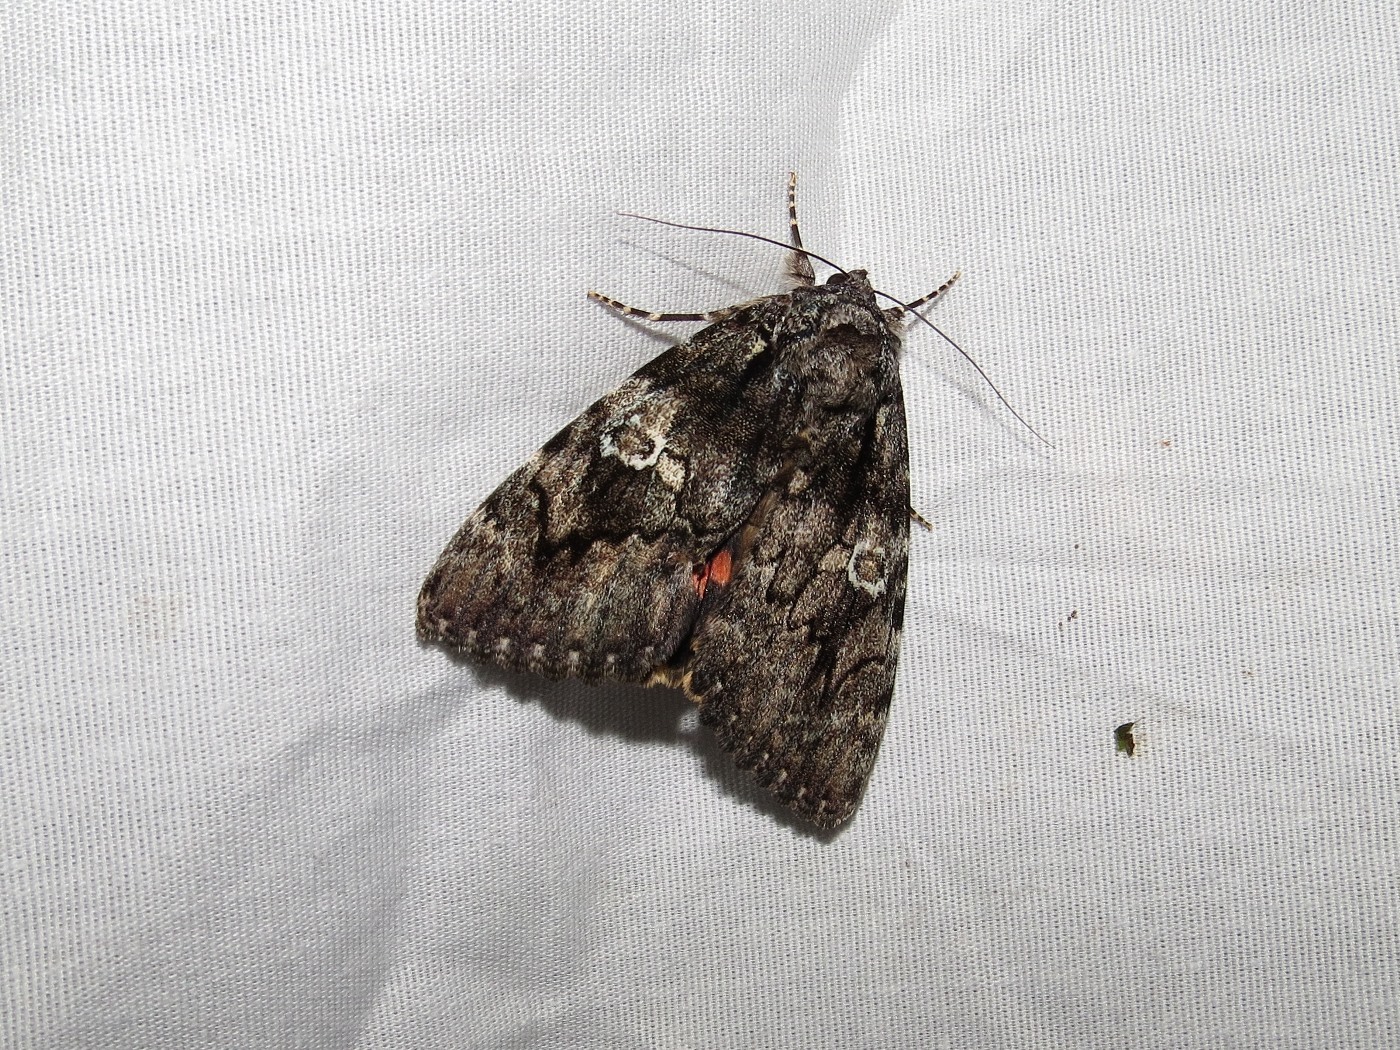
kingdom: Animalia
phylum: Arthropoda
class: Insecta
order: Lepidoptera
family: Erebidae
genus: Catocala
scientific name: Catocala ilia
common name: Ilia underwing
